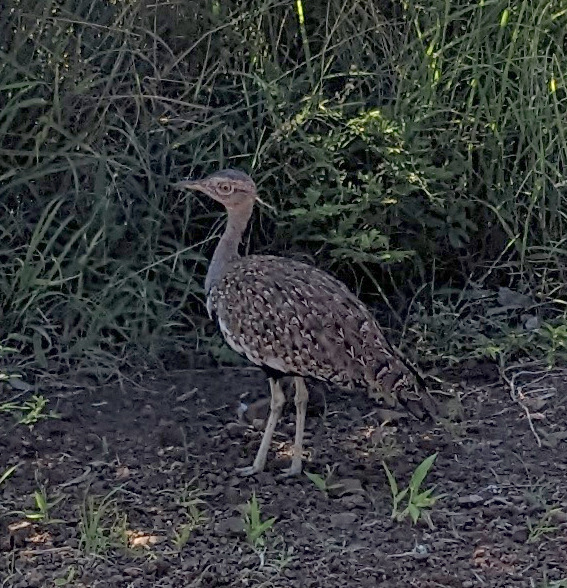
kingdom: Animalia
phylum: Chordata
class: Aves
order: Otidiformes
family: Otididae
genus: Lophotis
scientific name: Lophotis ruficrista
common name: Red-crested korhaan
